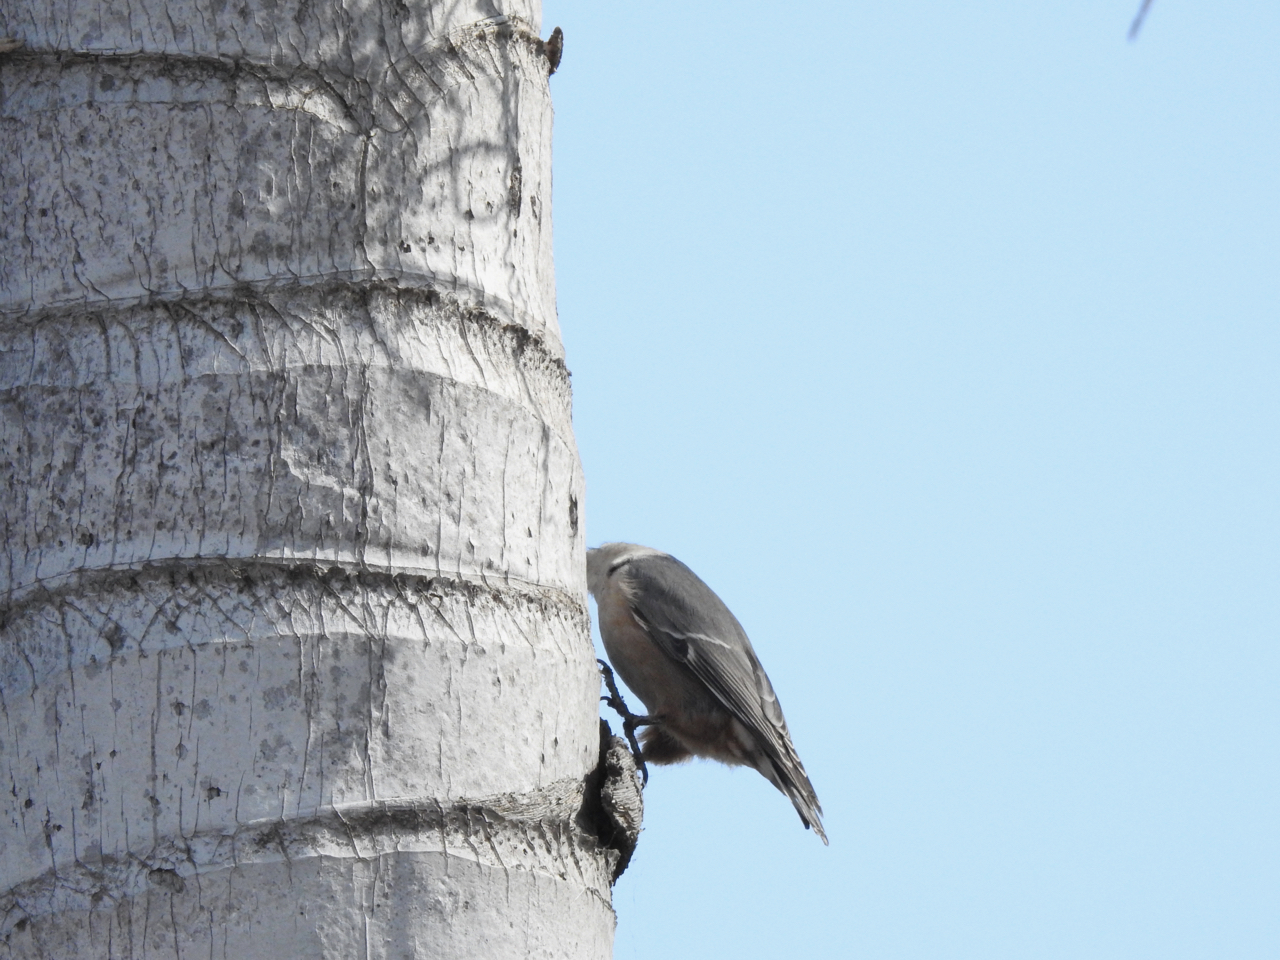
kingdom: Animalia
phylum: Chordata
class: Aves
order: Passeriformes
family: Sittidae
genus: Sitta
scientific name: Sitta carolinensis
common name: White-breasted nuthatch
